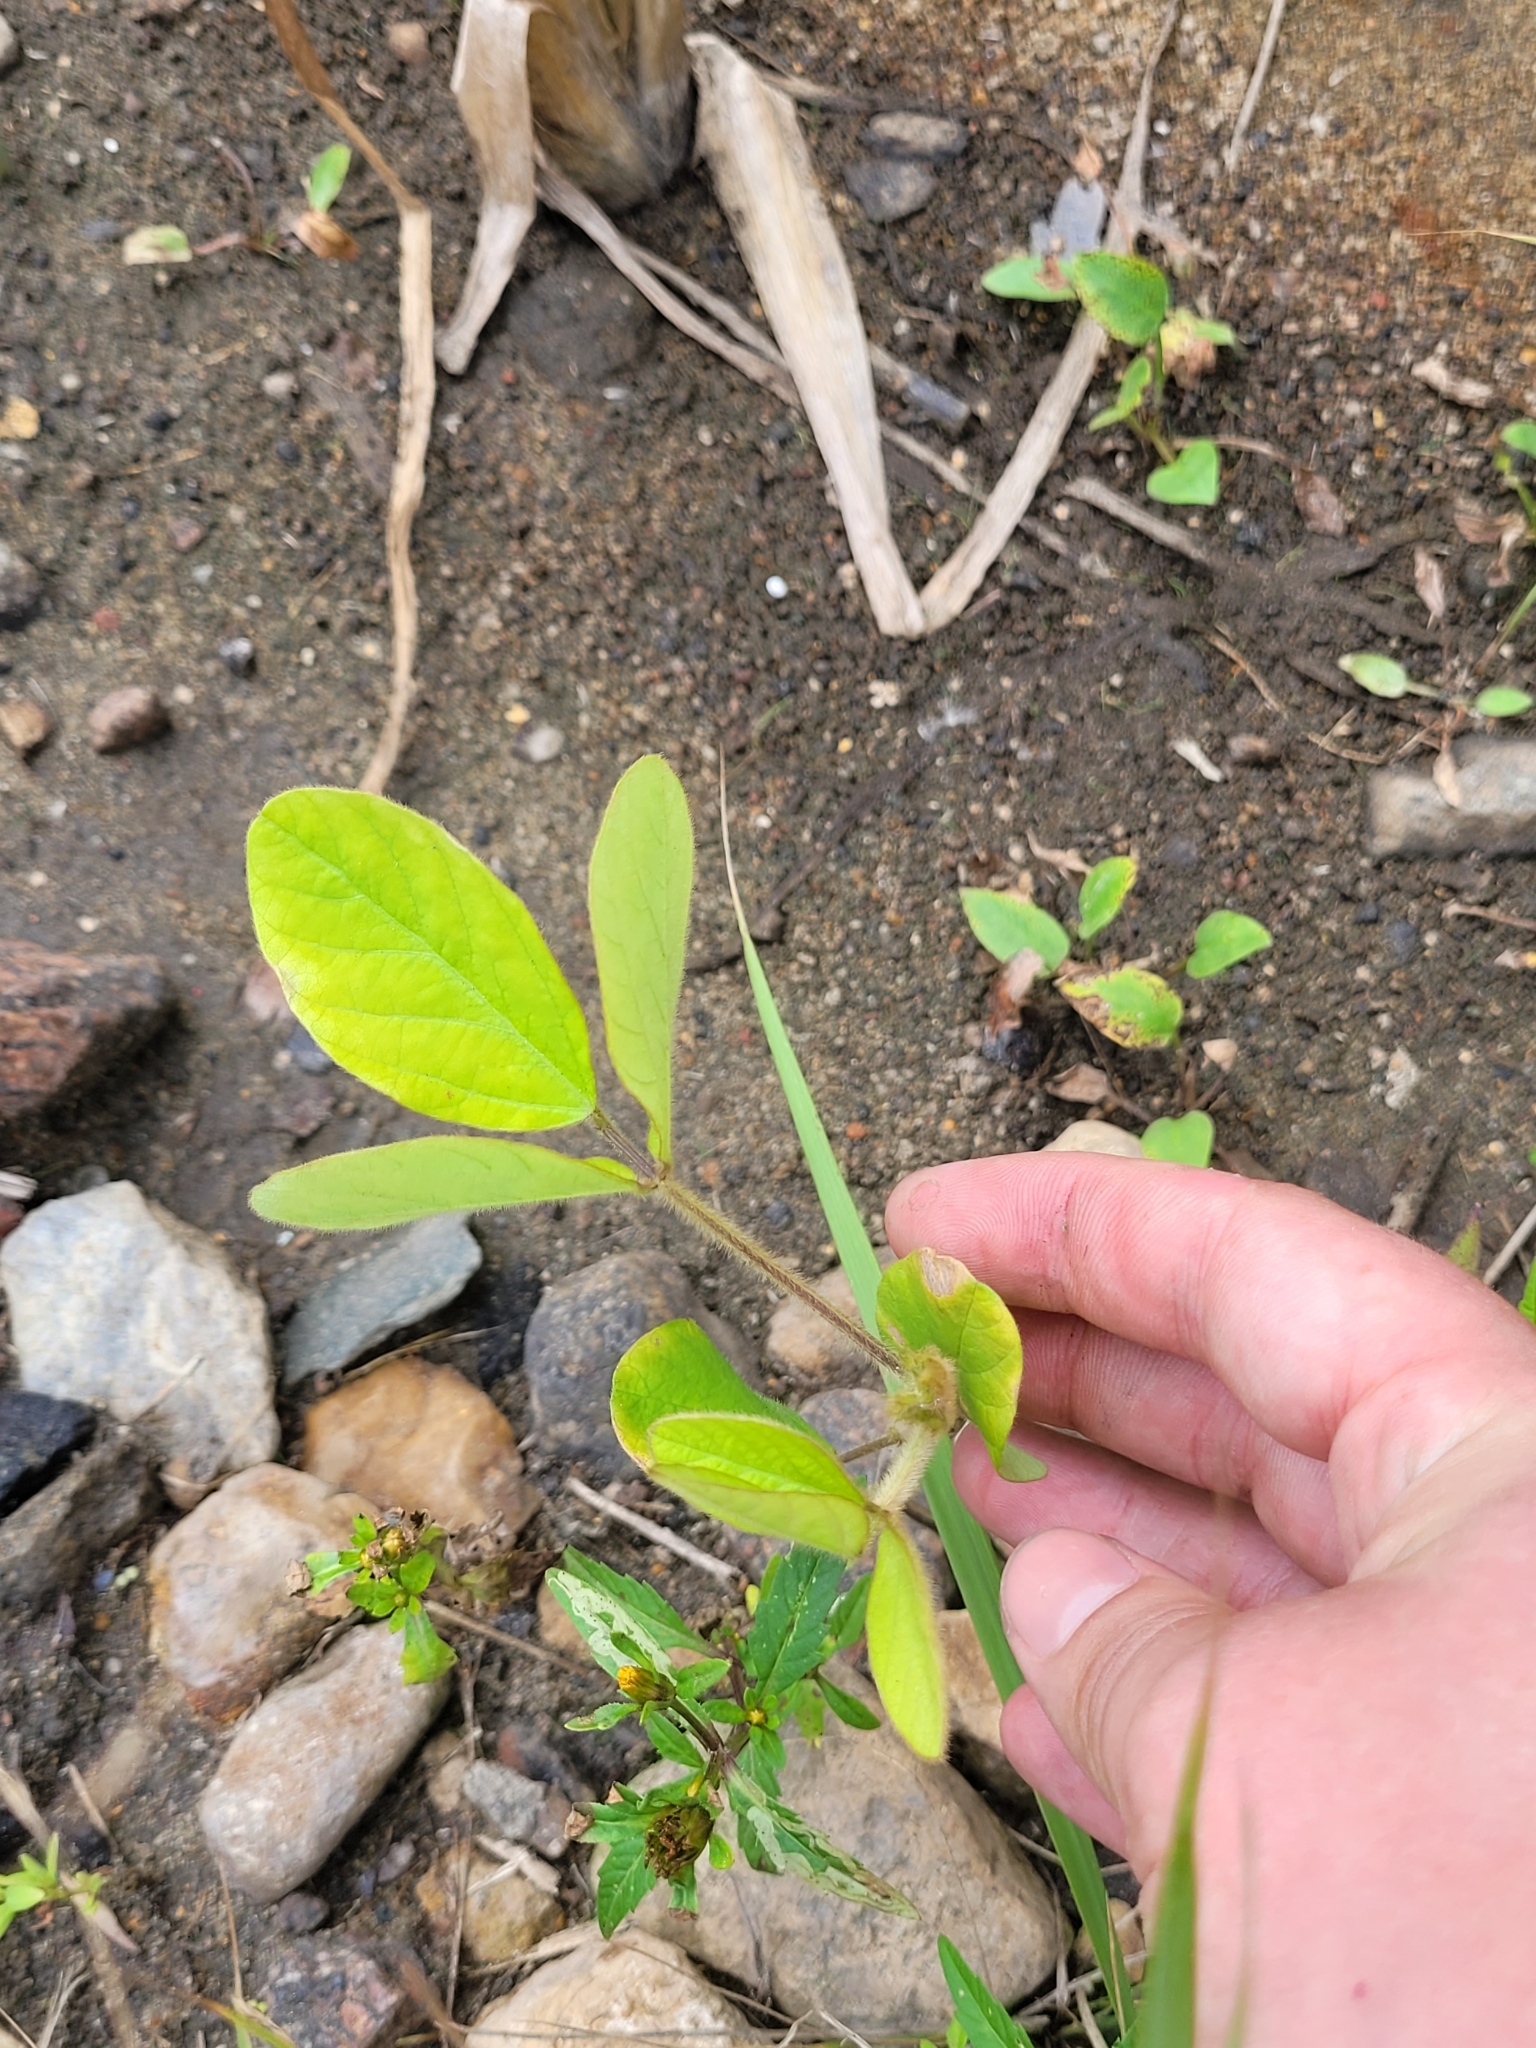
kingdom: Plantae
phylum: Tracheophyta
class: Magnoliopsida
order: Fabales
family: Fabaceae
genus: Glycine
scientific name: Glycine max
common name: Soya-bean
